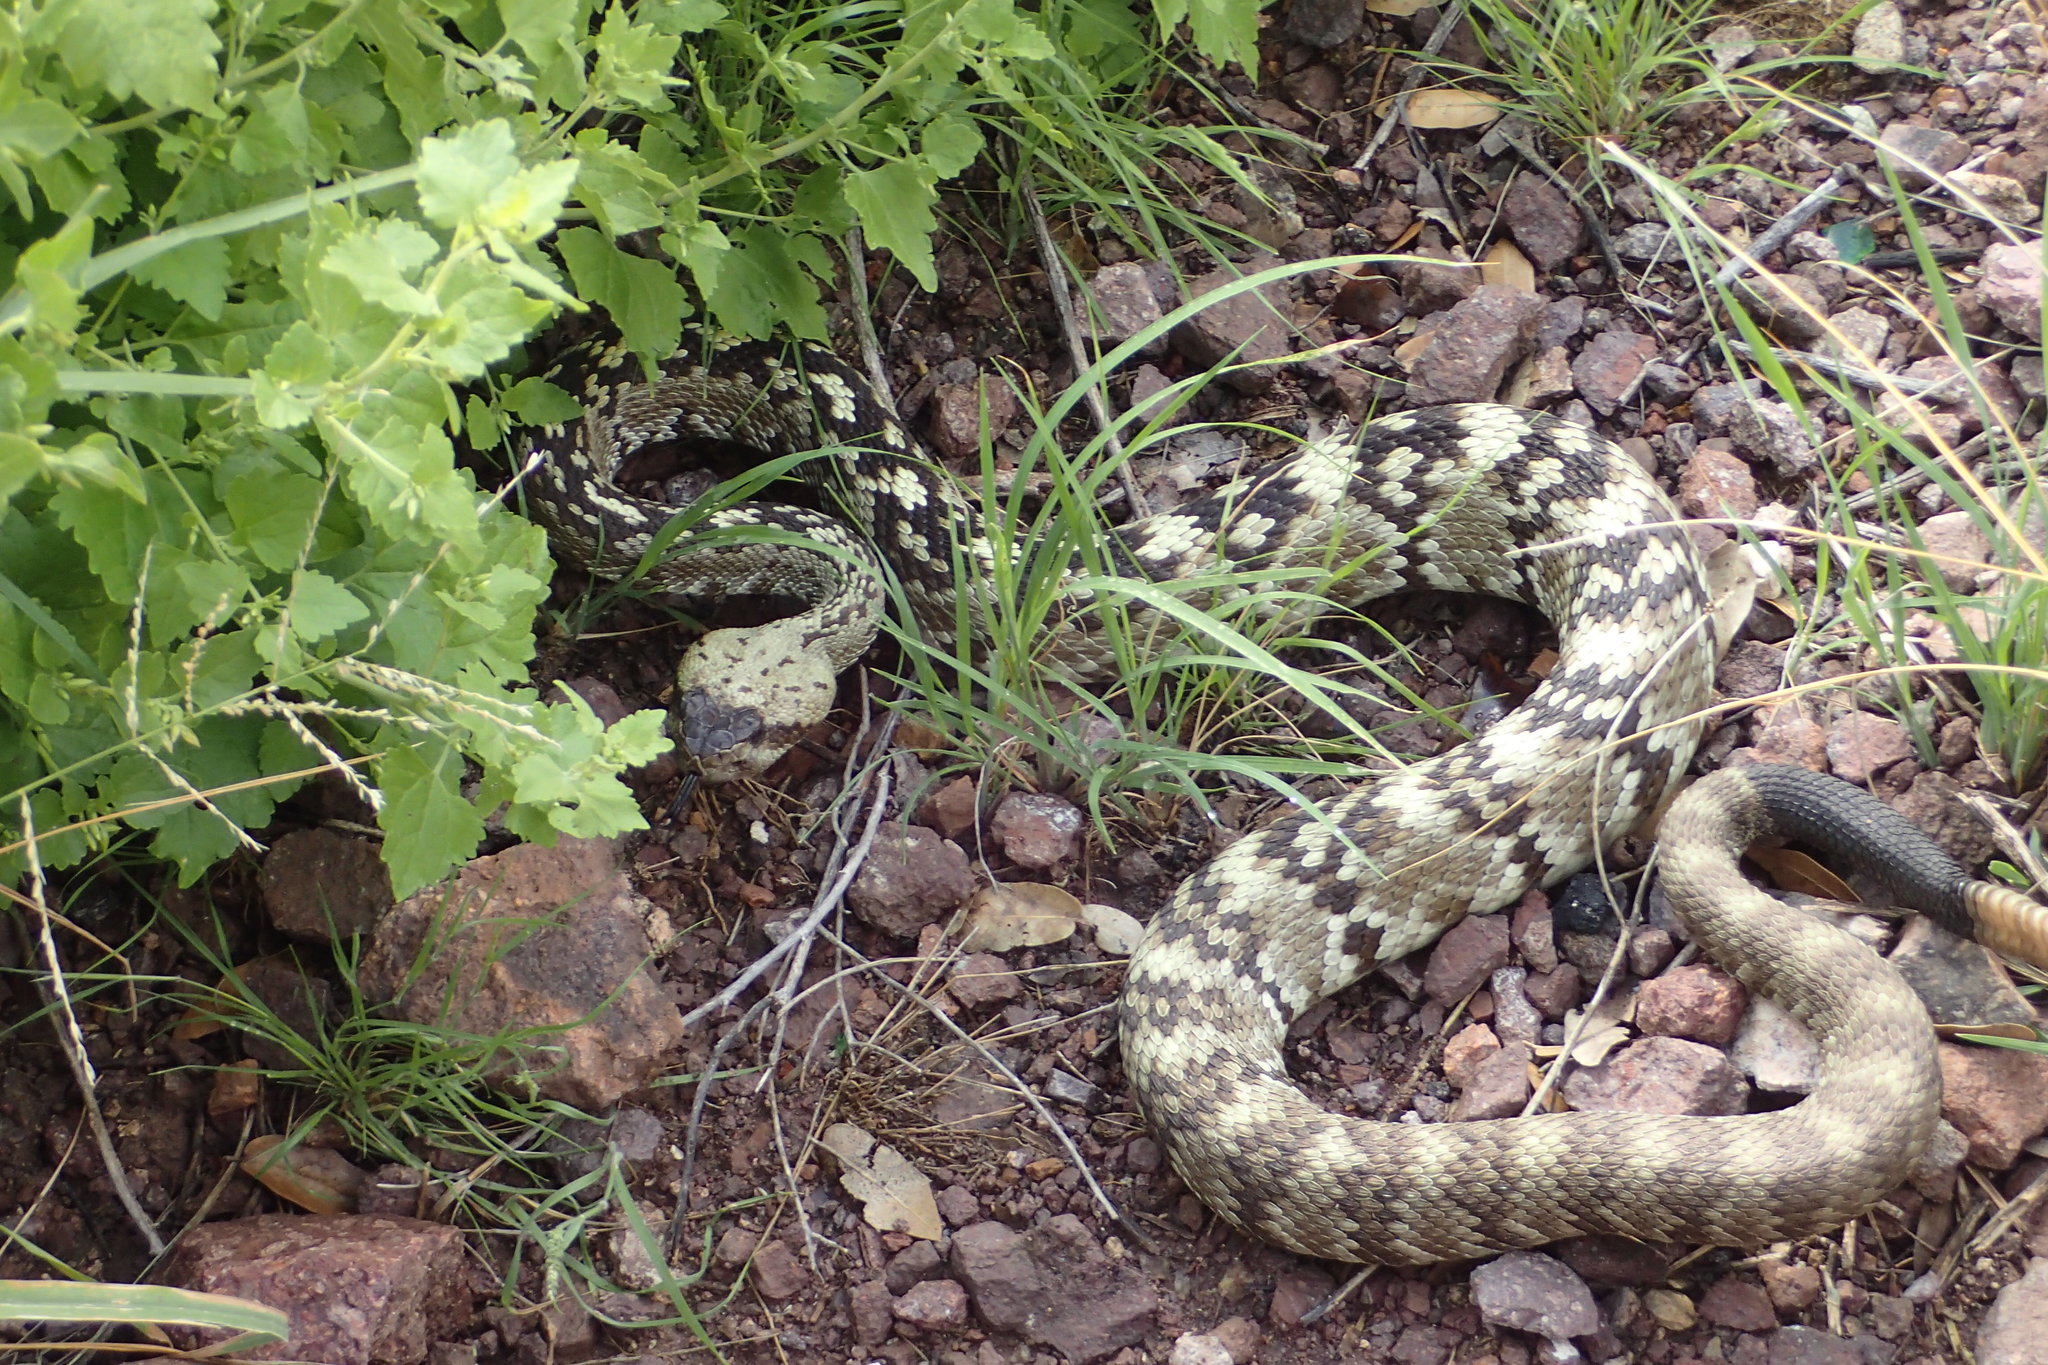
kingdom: Animalia
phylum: Chordata
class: Squamata
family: Viperidae
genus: Crotalus
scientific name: Crotalus ornatus
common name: Black-tailed rattlesnake
